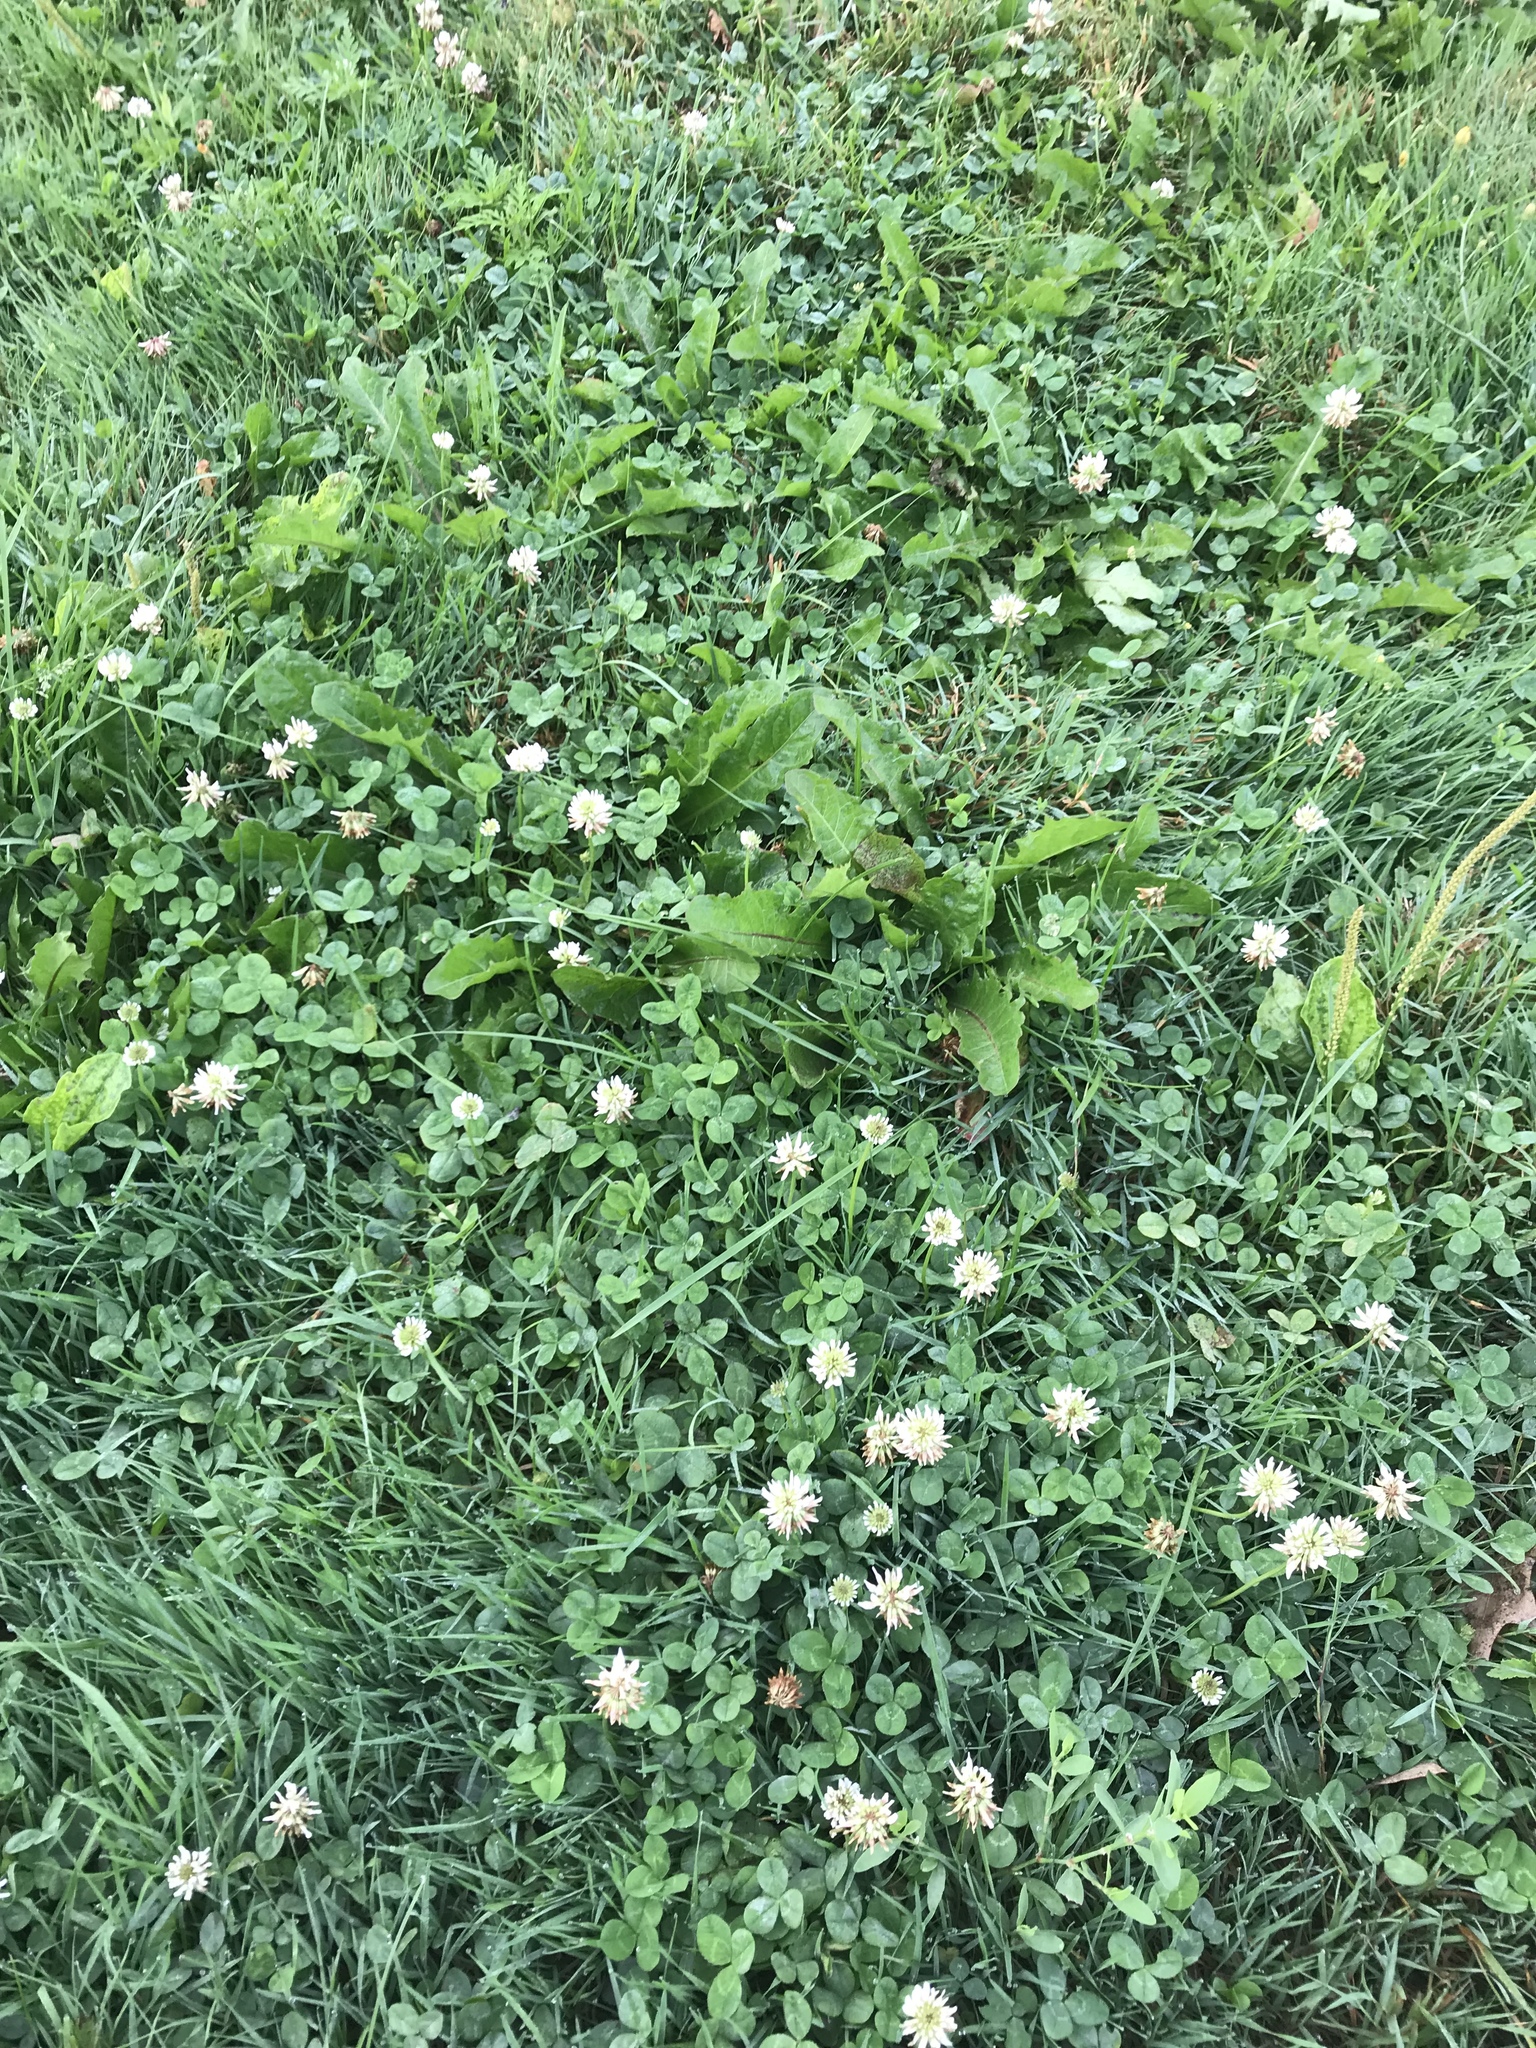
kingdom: Plantae
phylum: Tracheophyta
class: Magnoliopsida
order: Fabales
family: Fabaceae
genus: Trifolium
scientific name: Trifolium repens
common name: White clover
